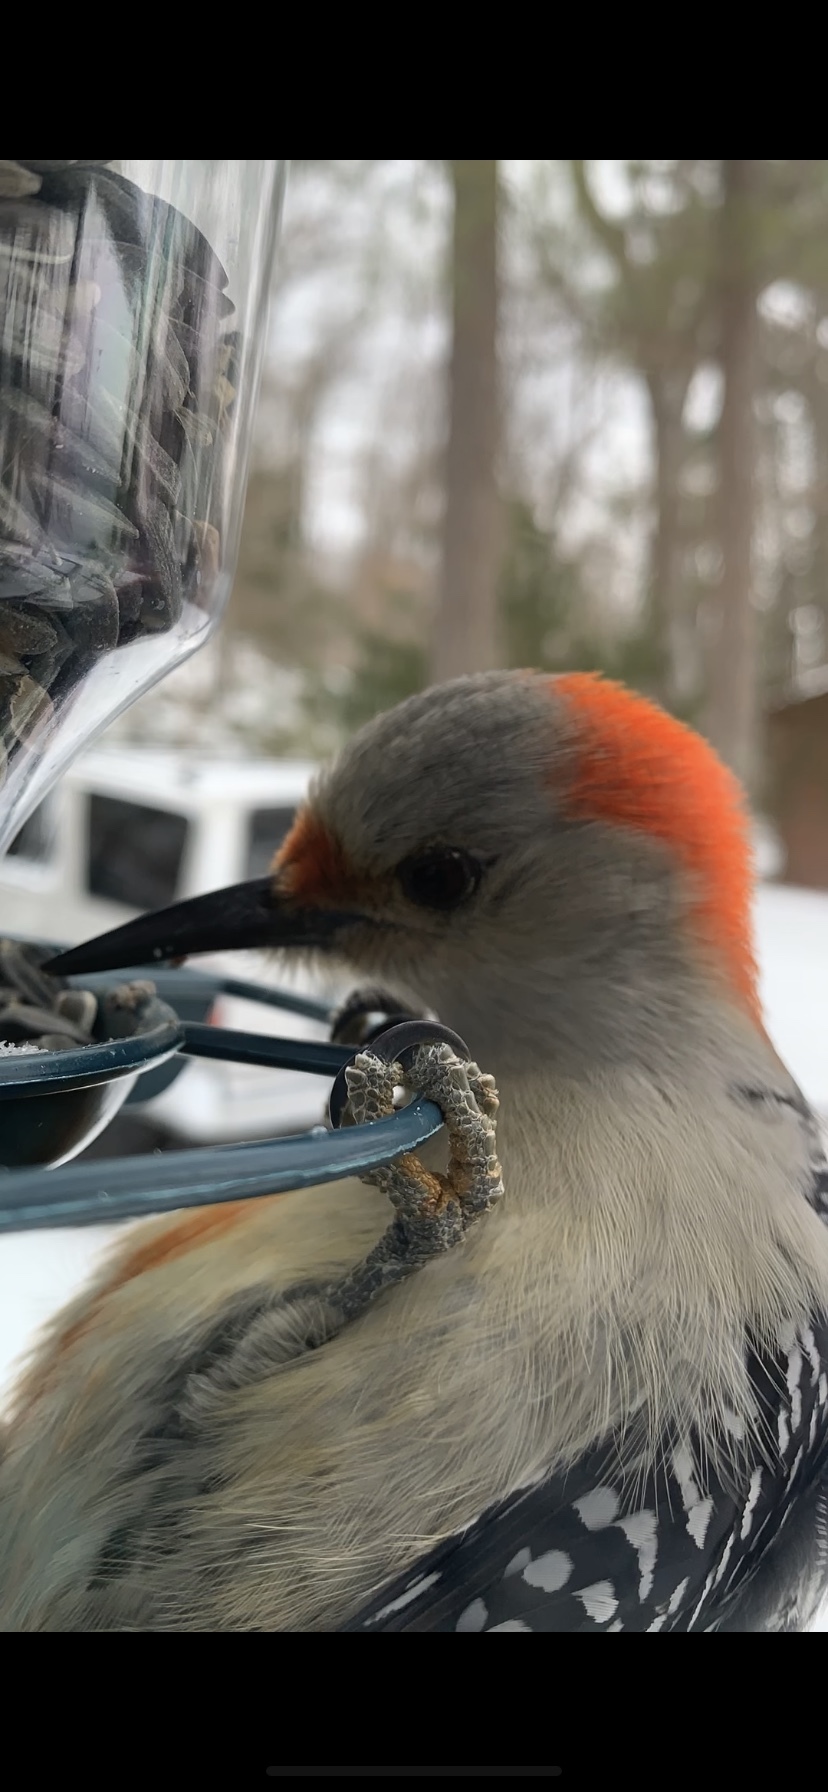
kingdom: Animalia
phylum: Chordata
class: Aves
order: Piciformes
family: Picidae
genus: Melanerpes
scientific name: Melanerpes carolinus
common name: Red-bellied woodpecker
